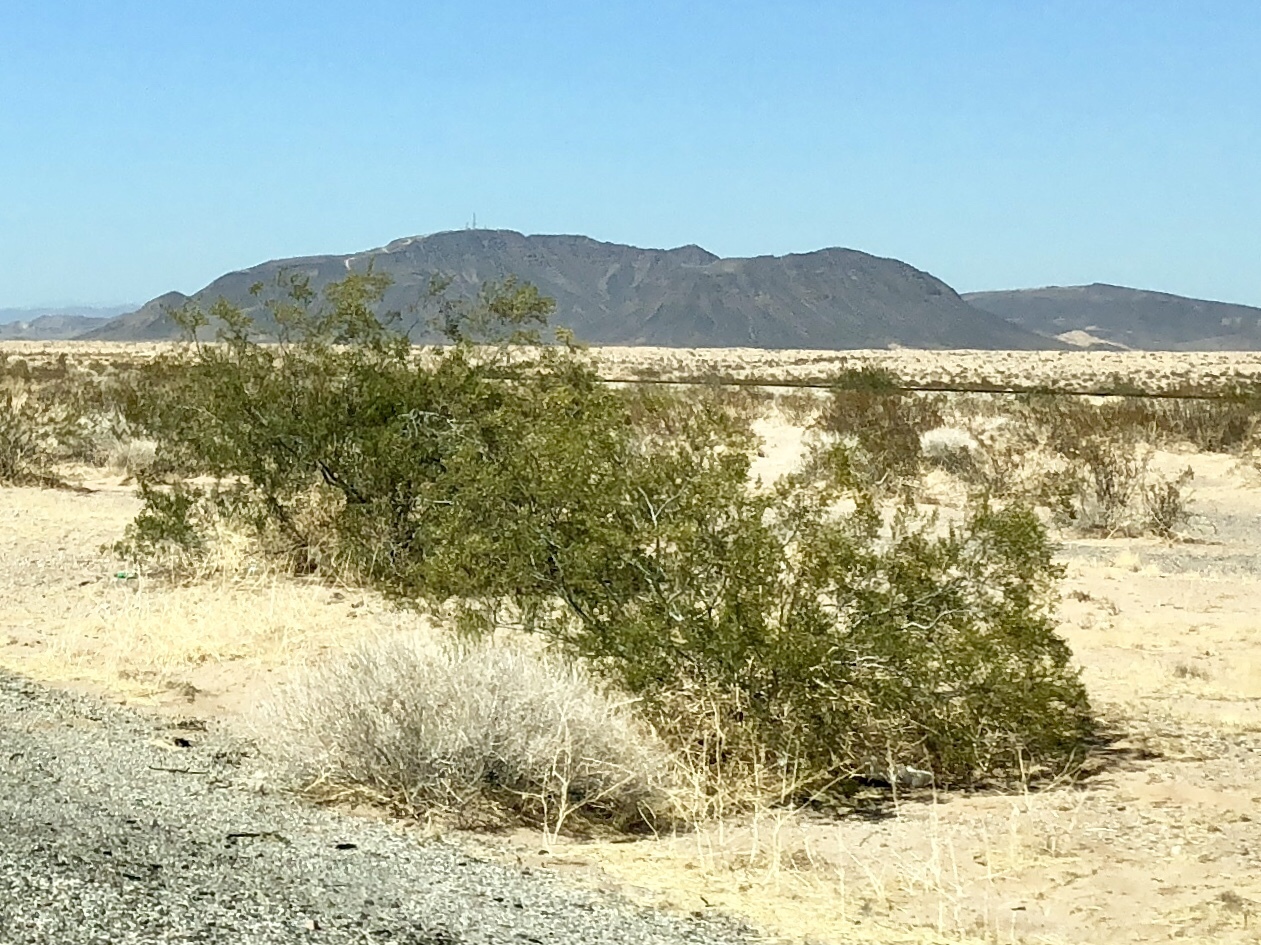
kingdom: Plantae
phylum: Tracheophyta
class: Magnoliopsida
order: Zygophyllales
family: Zygophyllaceae
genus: Larrea
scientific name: Larrea tridentata
